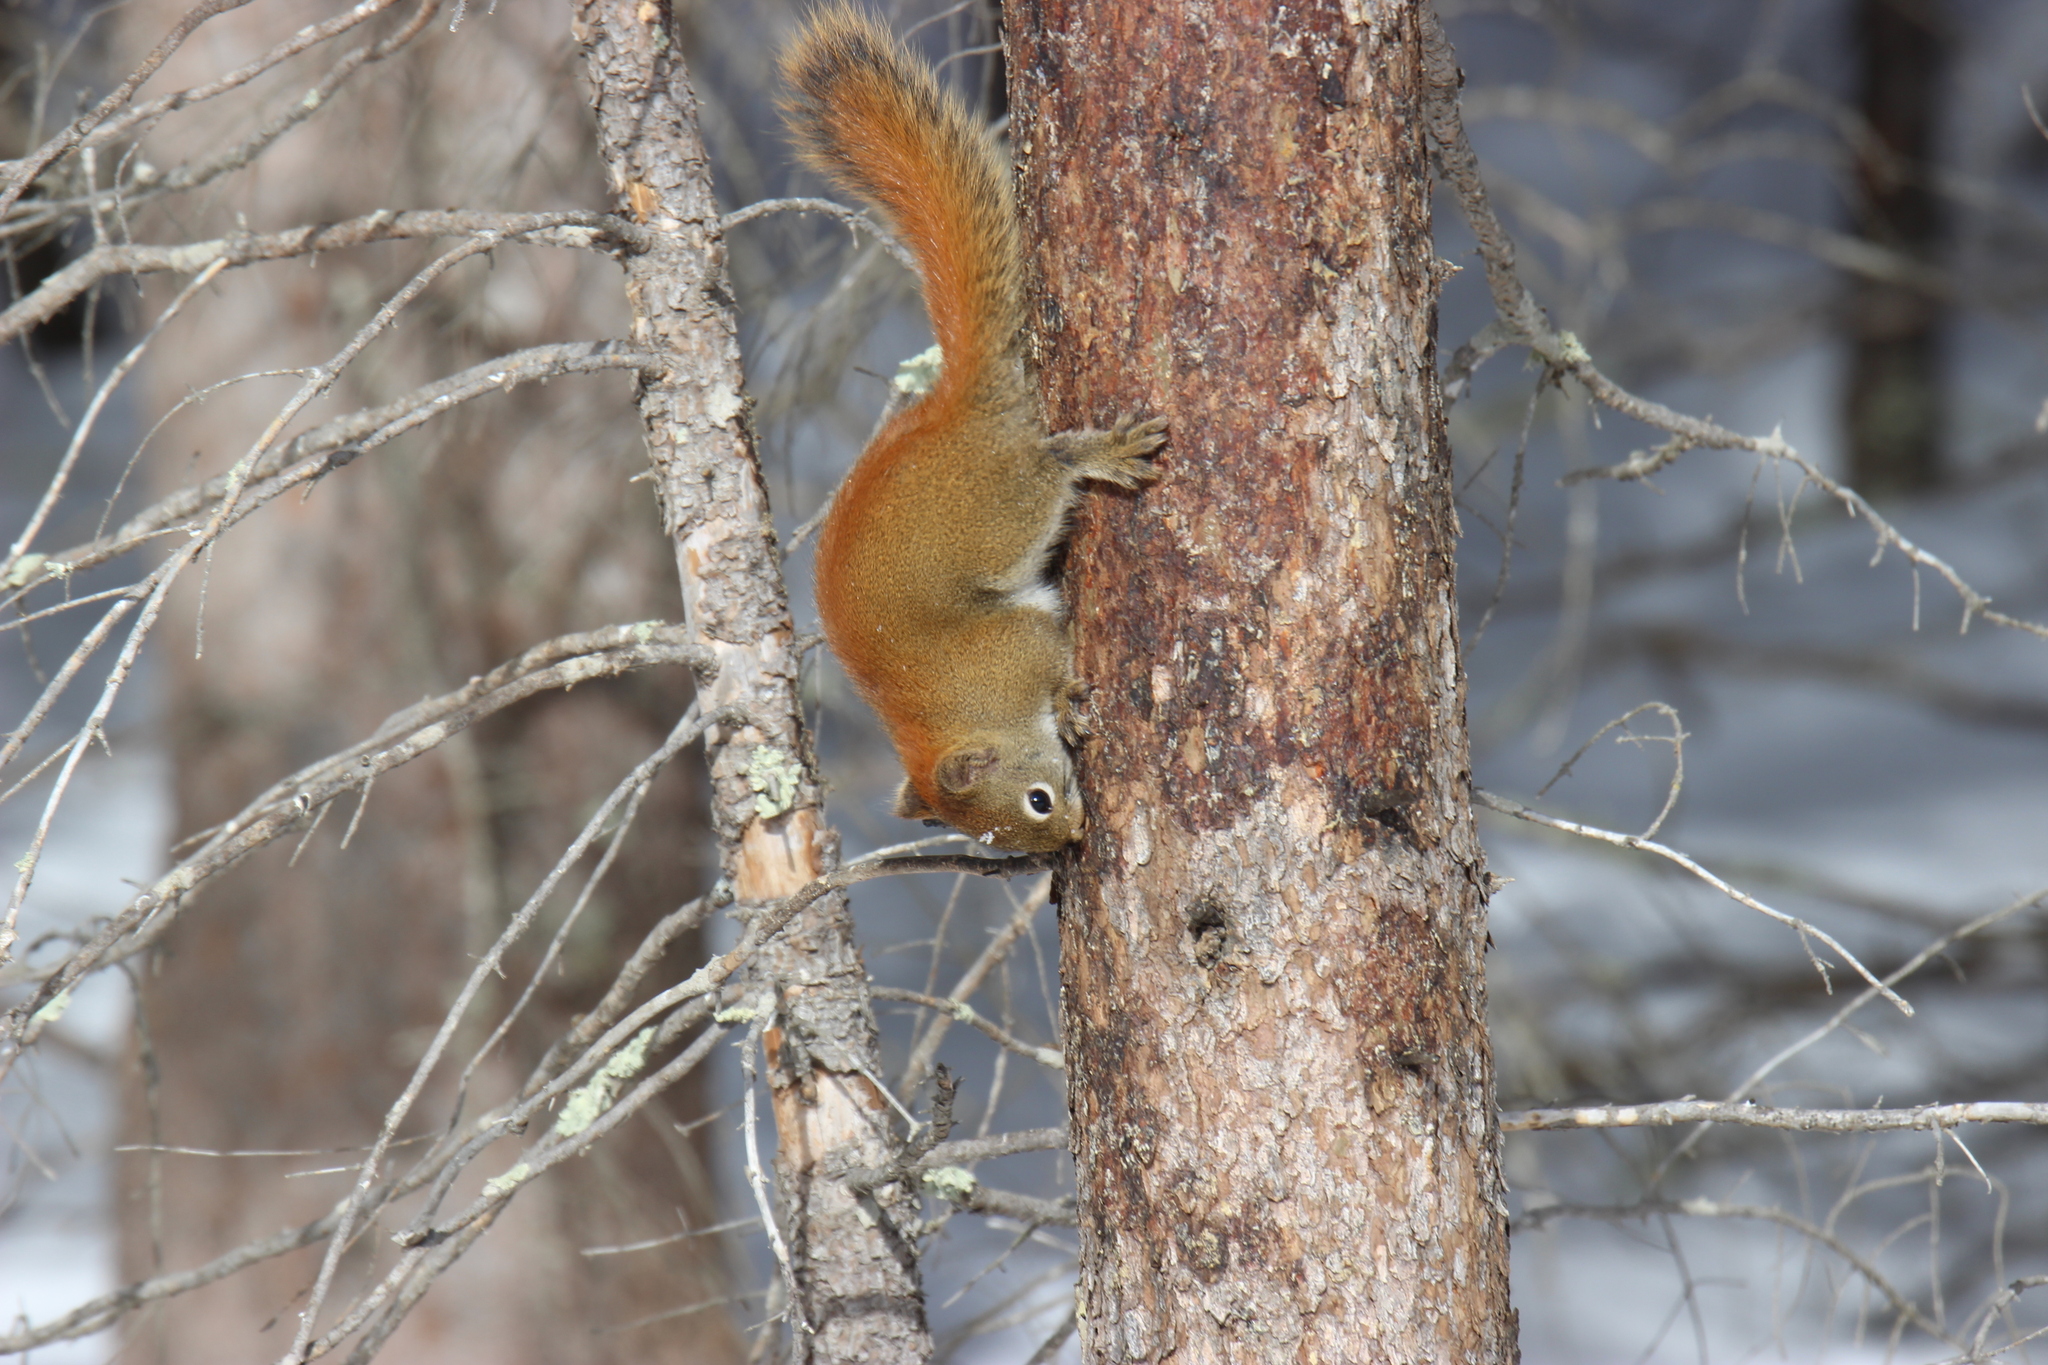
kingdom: Animalia
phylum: Chordata
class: Mammalia
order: Rodentia
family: Sciuridae
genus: Tamiasciurus
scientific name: Tamiasciurus hudsonicus
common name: Red squirrel
